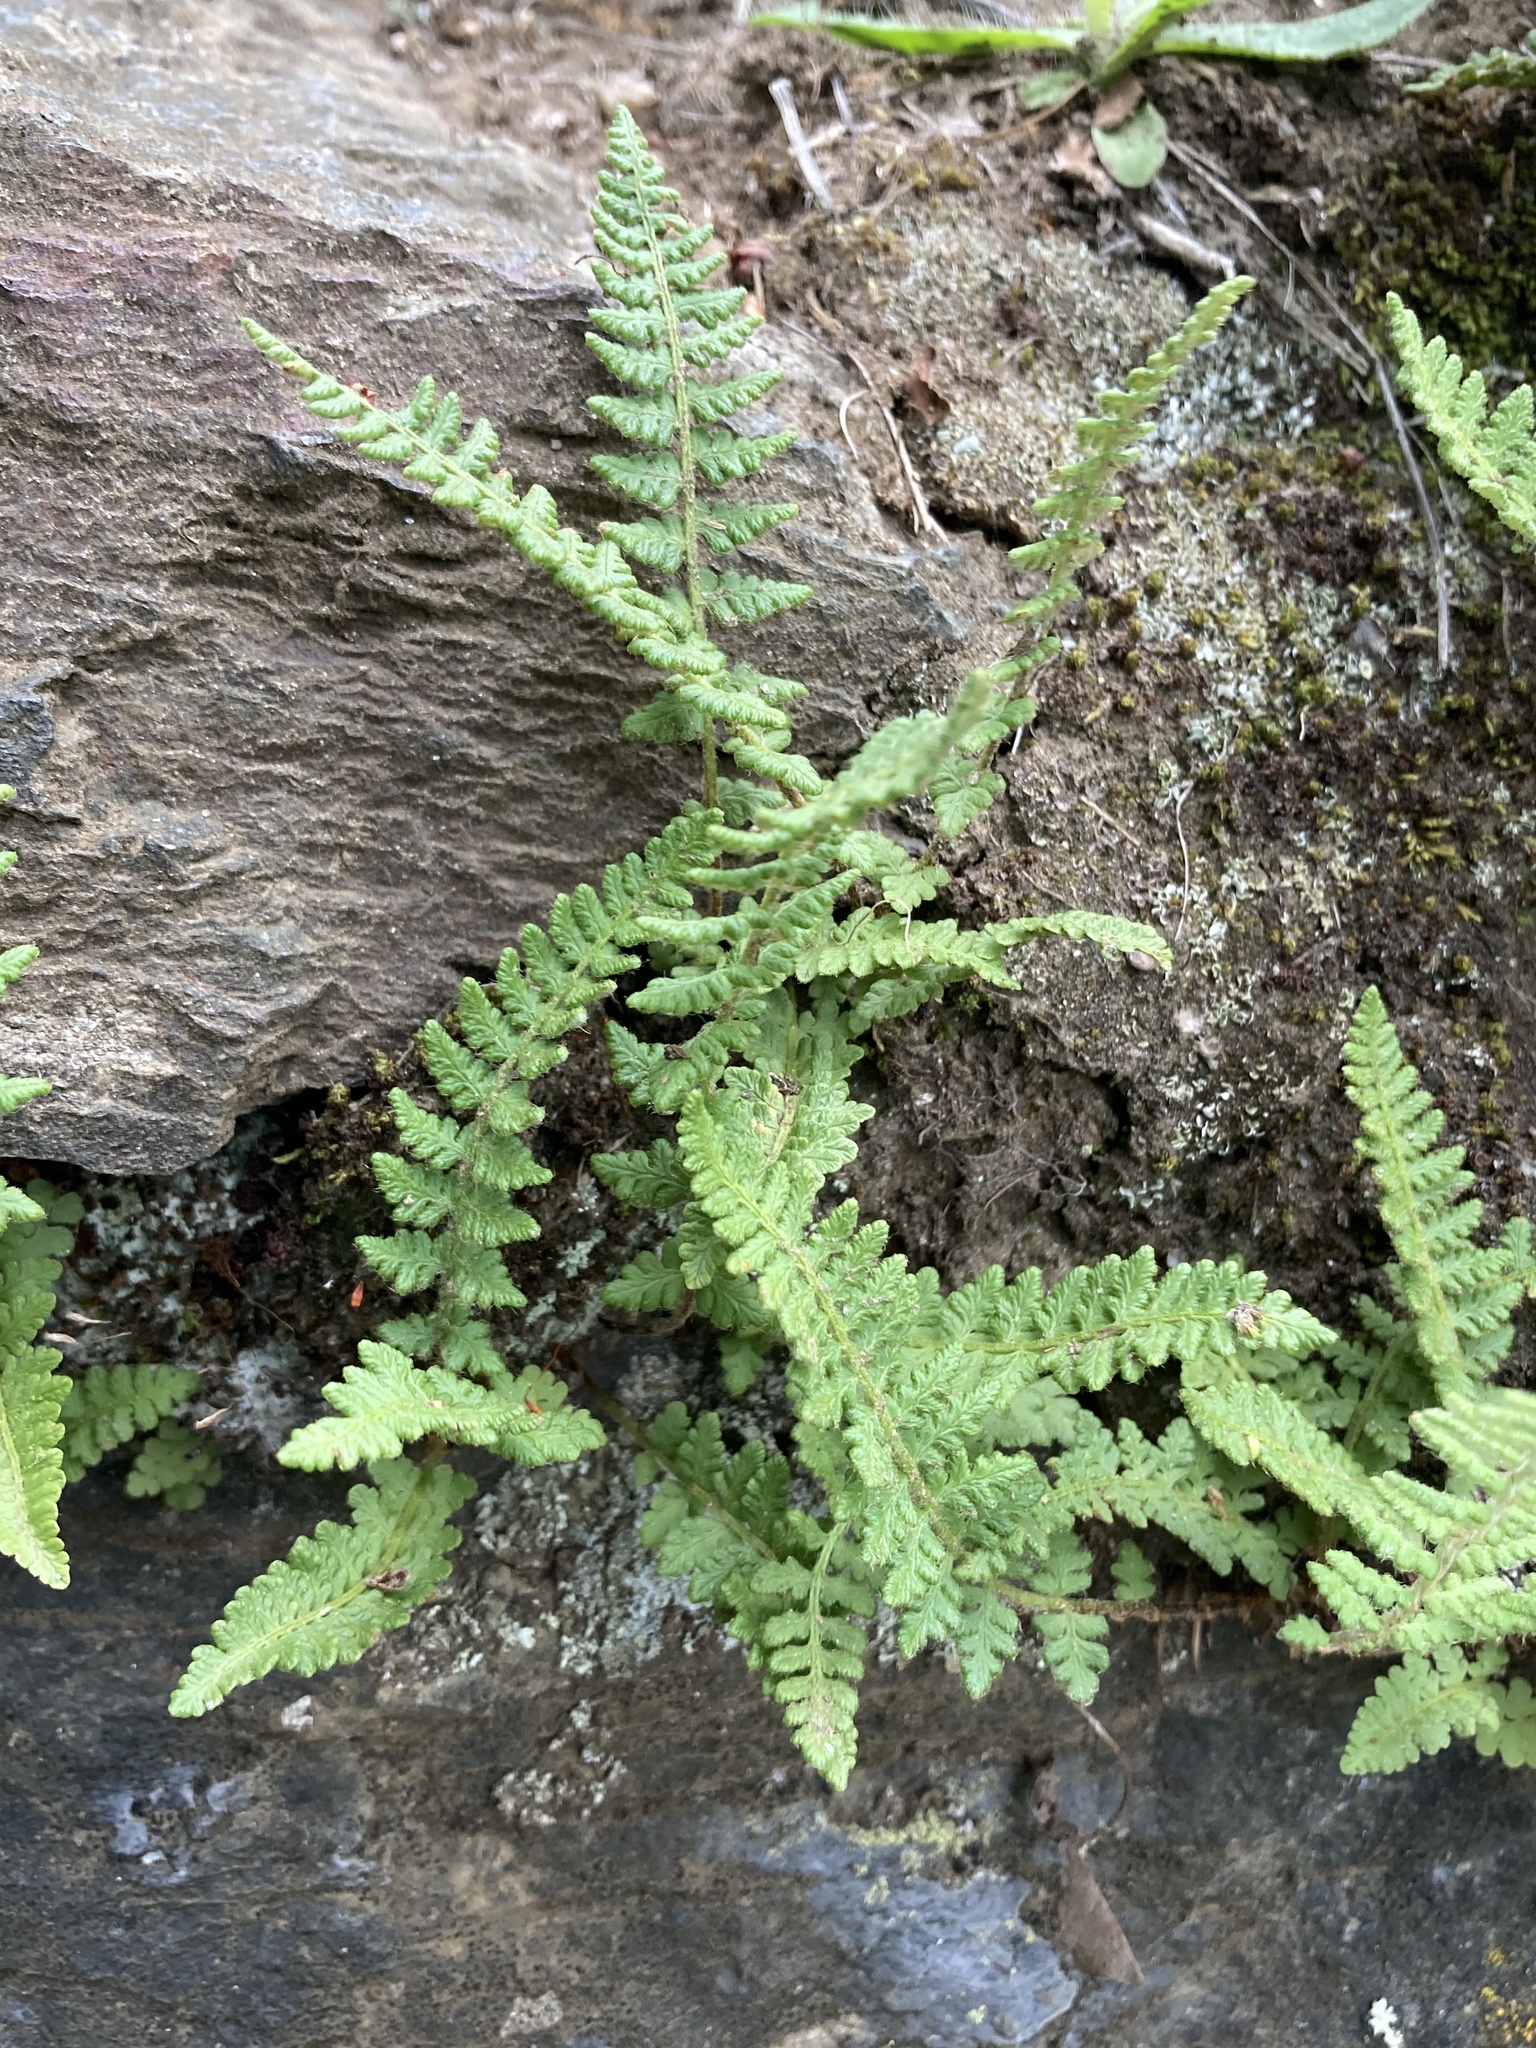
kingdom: Plantae
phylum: Tracheophyta
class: Polypodiopsida
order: Polypodiales
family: Woodsiaceae
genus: Woodsia
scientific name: Woodsia ilvensis
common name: Fragrant woodsia
